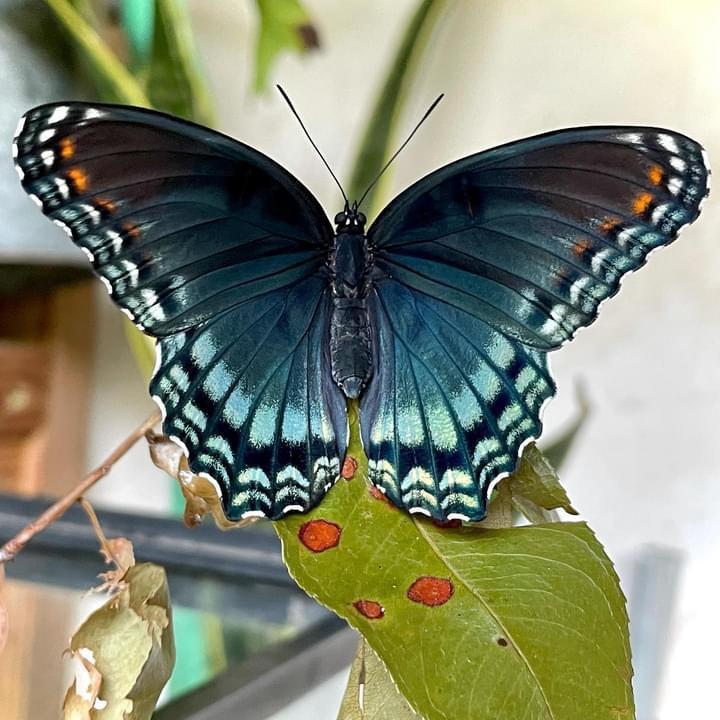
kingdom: Animalia
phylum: Arthropoda
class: Insecta
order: Lepidoptera
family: Nymphalidae
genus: Limenitis
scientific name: Limenitis astyanax
